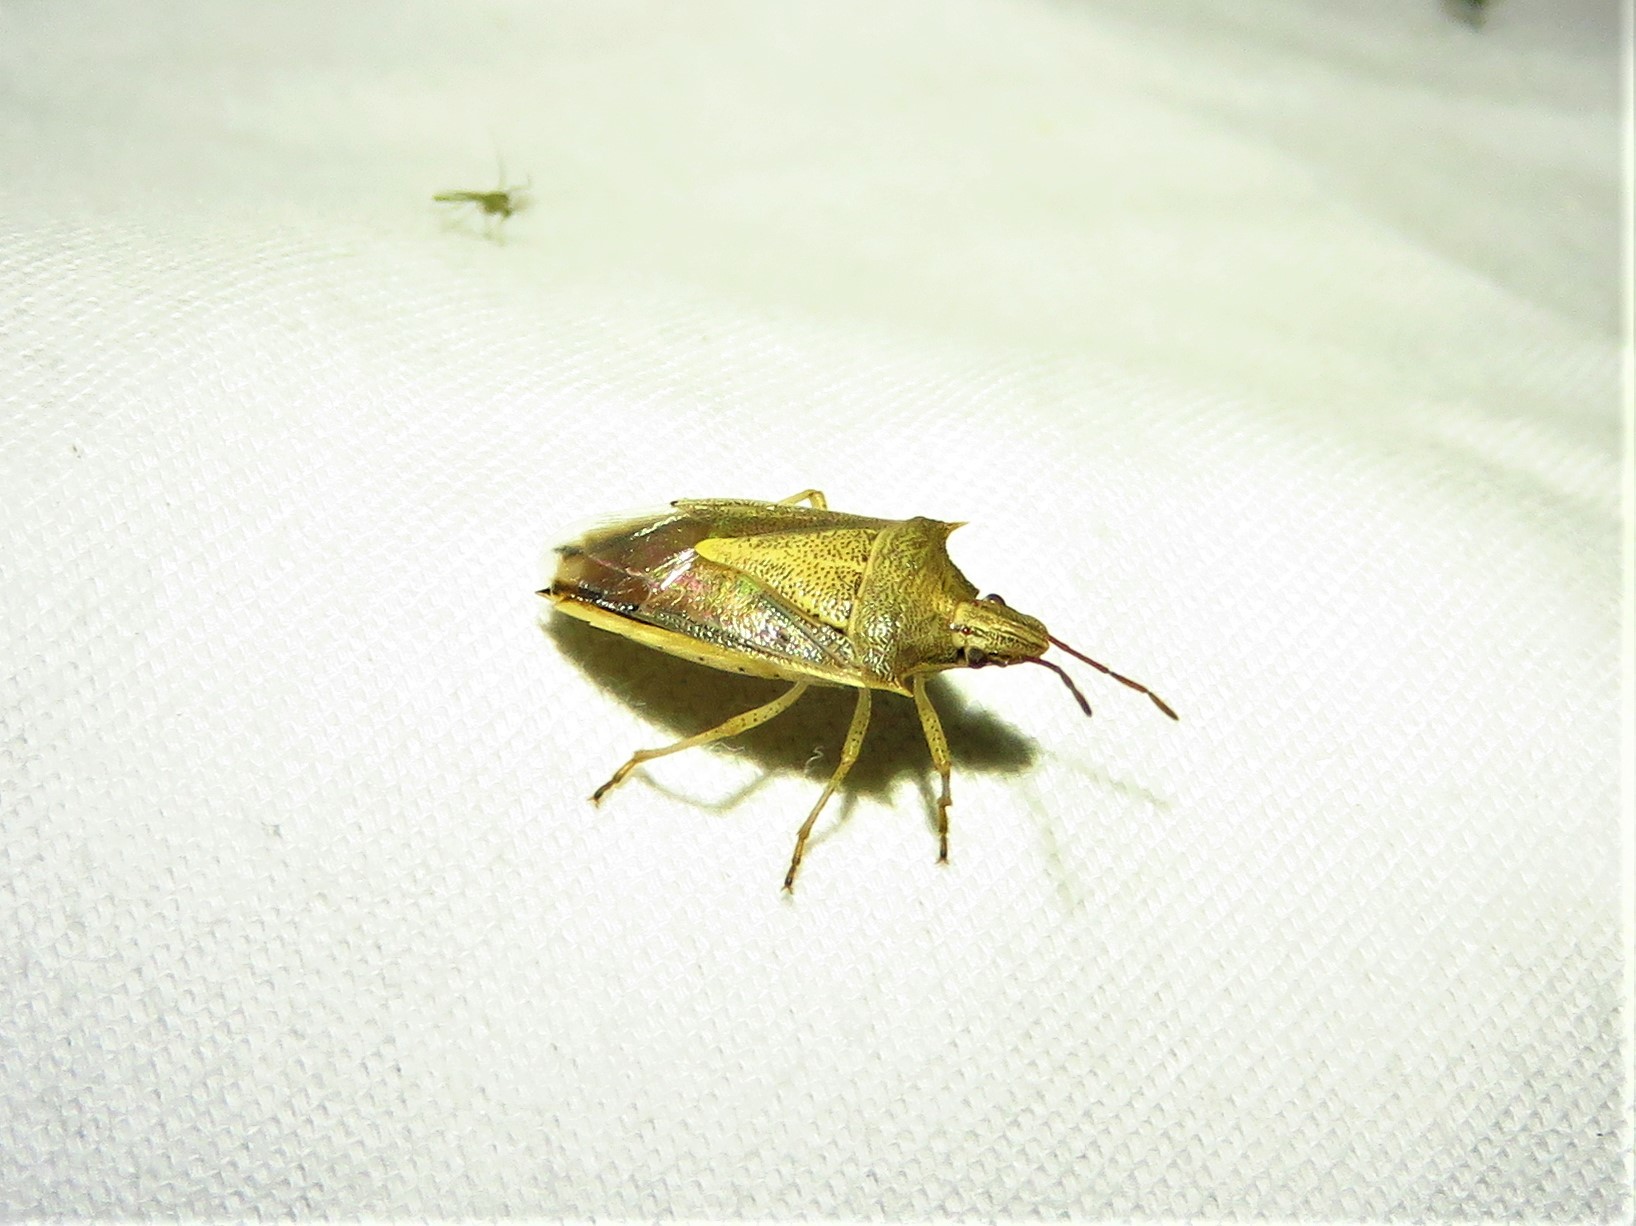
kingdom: Animalia
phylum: Arthropoda
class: Insecta
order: Hemiptera
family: Pentatomidae
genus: Oebalus
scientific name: Oebalus pugnax
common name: Rice stink bug
